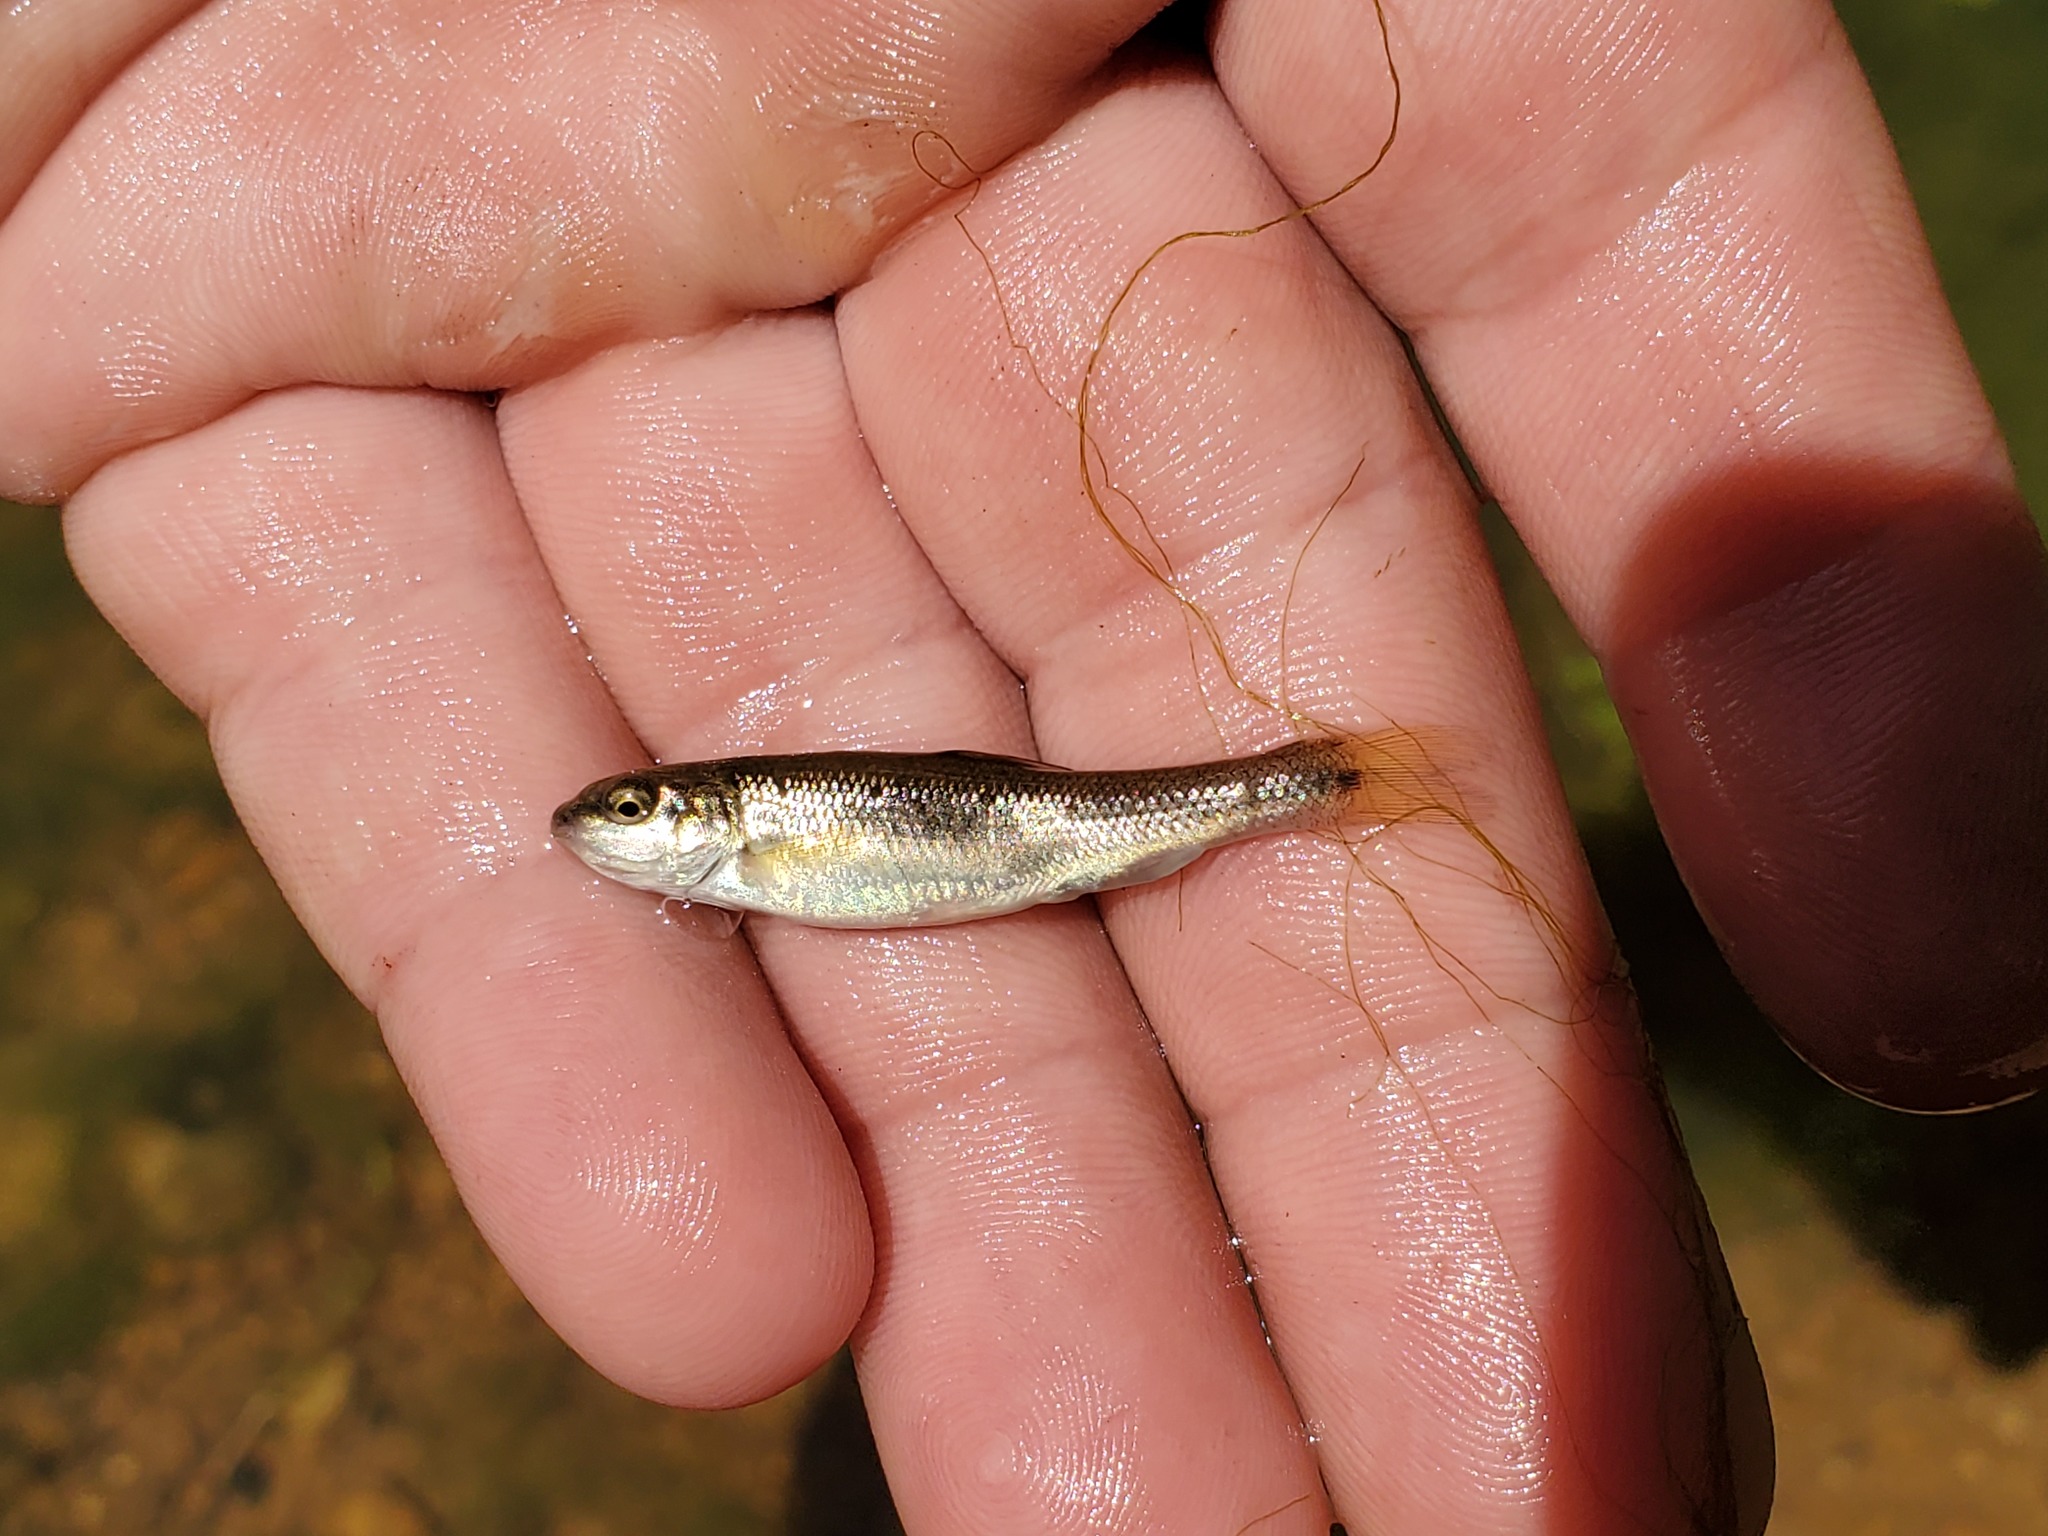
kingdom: Animalia
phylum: Chordata
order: Cypriniformes
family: Cyprinidae
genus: Semotilus
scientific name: Semotilus atromaculatus
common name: Creek chub
